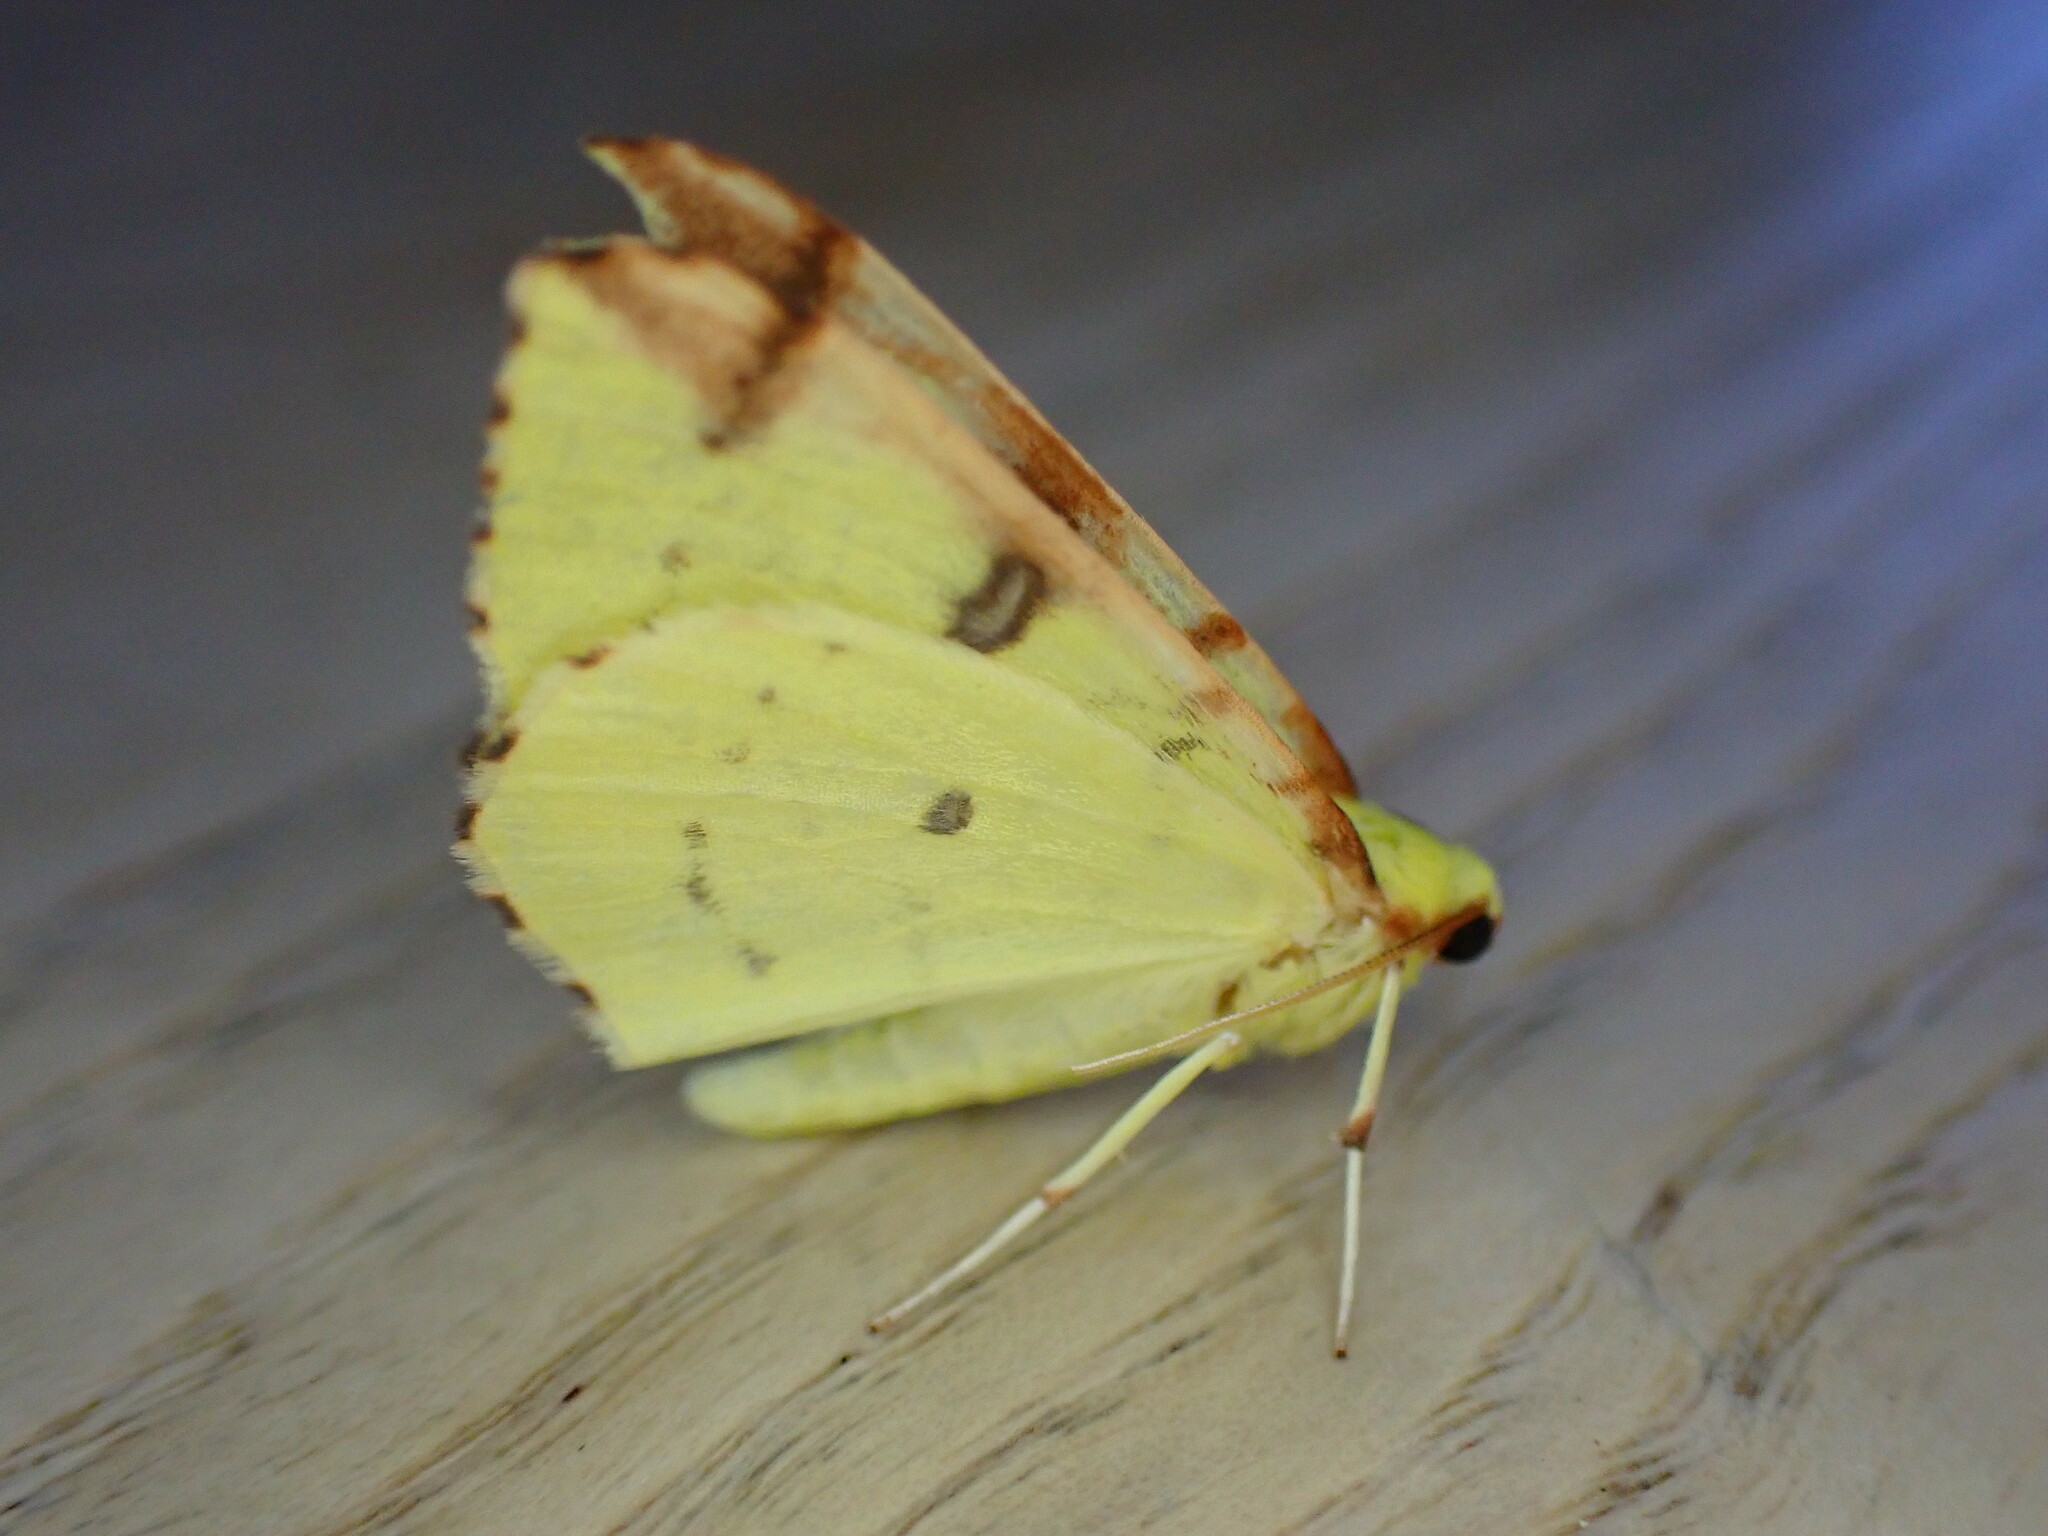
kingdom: Animalia
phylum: Arthropoda
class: Insecta
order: Lepidoptera
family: Geometridae
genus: Opisthograptis
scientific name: Opisthograptis luteolata
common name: Brimstone moth
